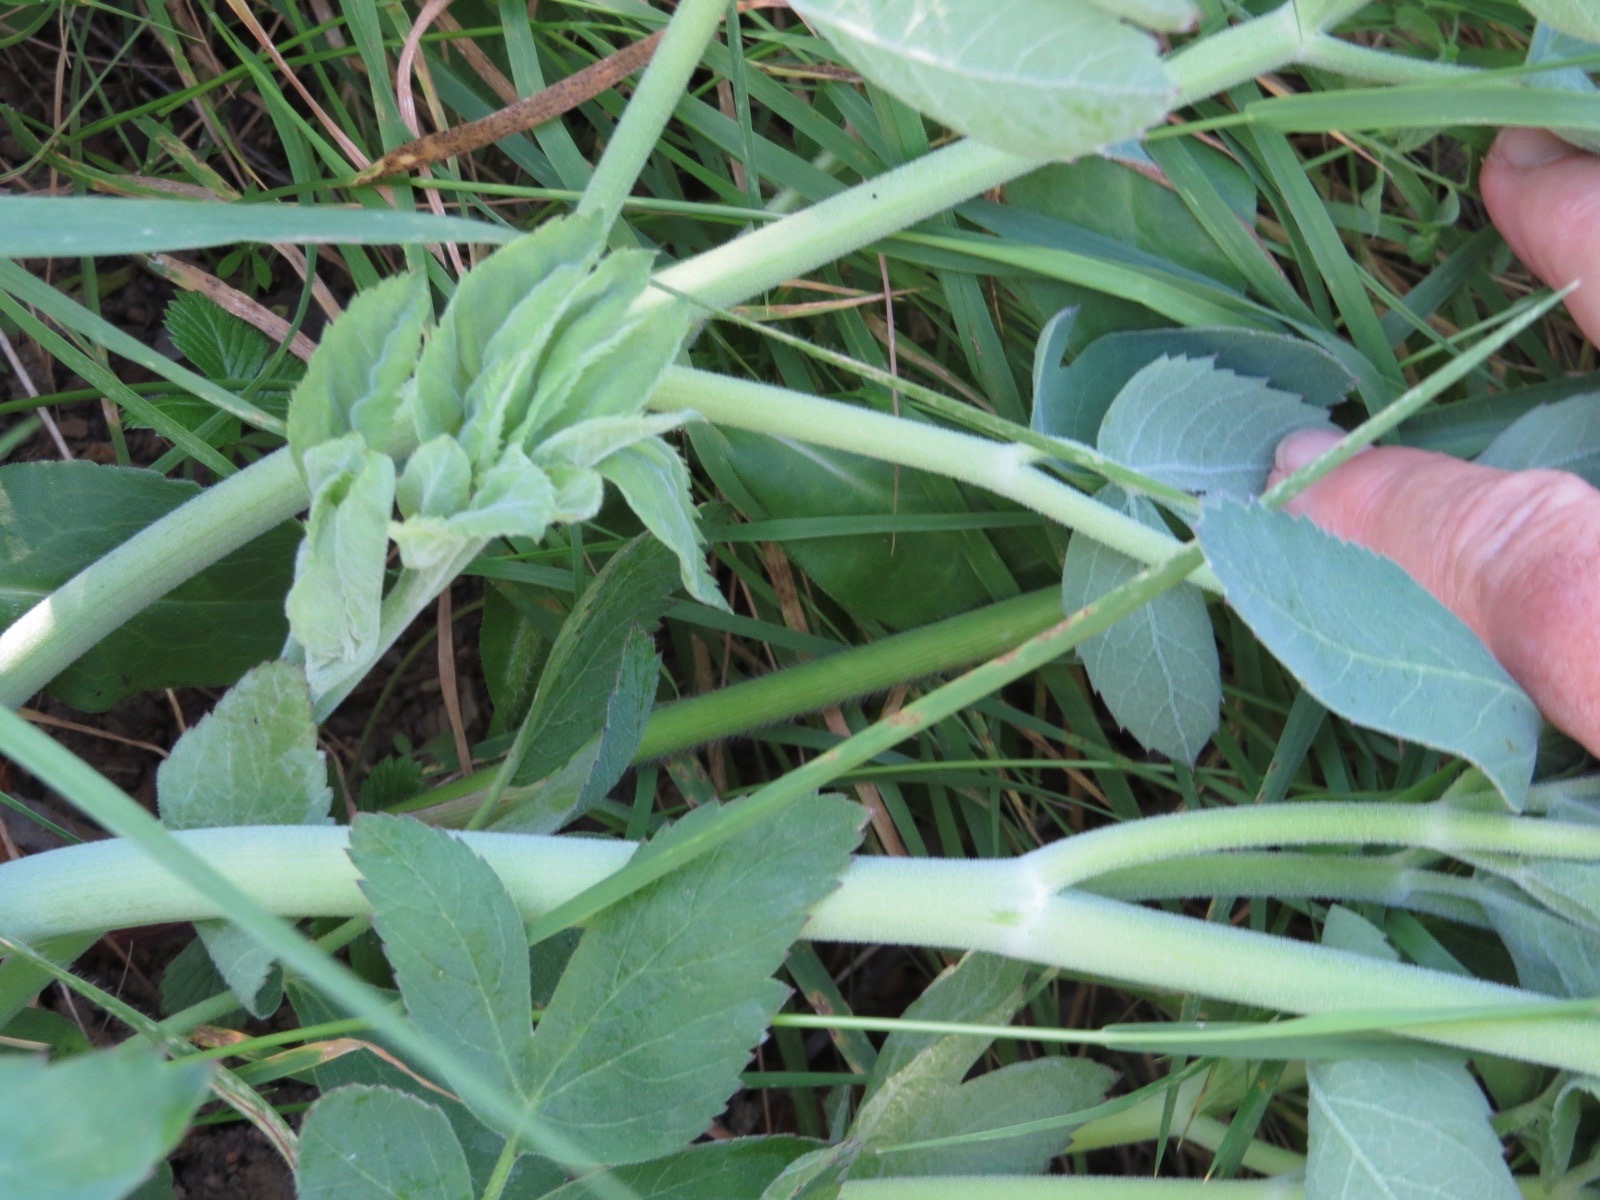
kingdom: Plantae
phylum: Tracheophyta
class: Magnoliopsida
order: Apiales
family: Apiaceae
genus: Angelica
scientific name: Angelica tomentosa
